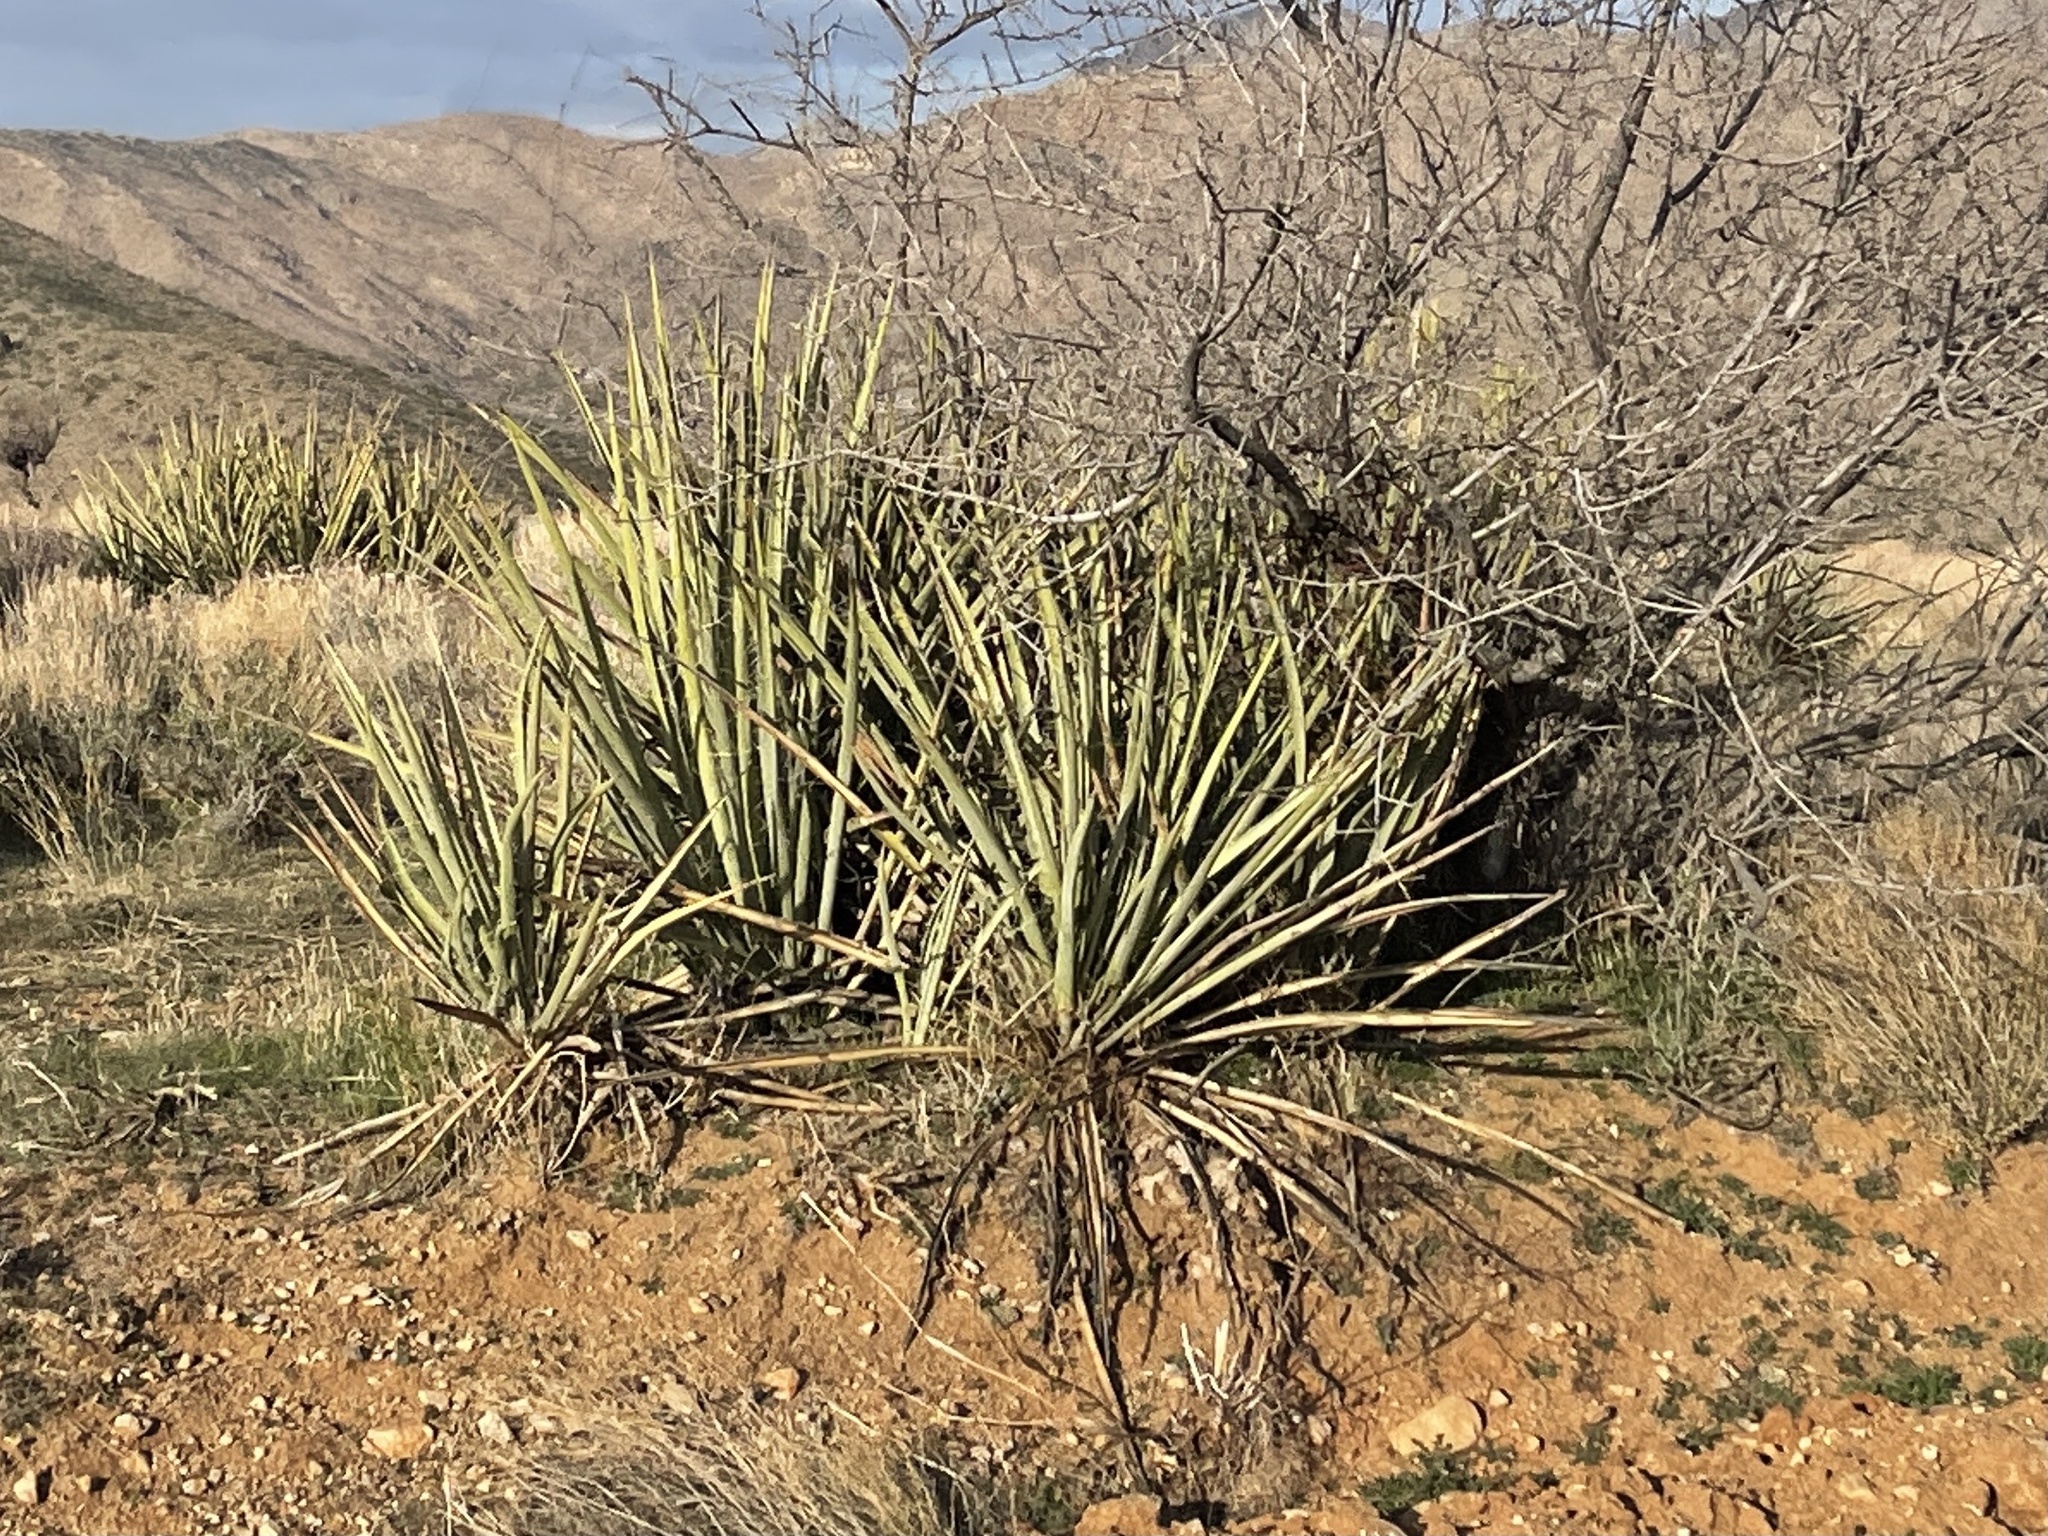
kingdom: Plantae
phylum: Tracheophyta
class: Liliopsida
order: Asparagales
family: Asparagaceae
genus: Yucca
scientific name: Yucca baccata
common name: Banana yucca
